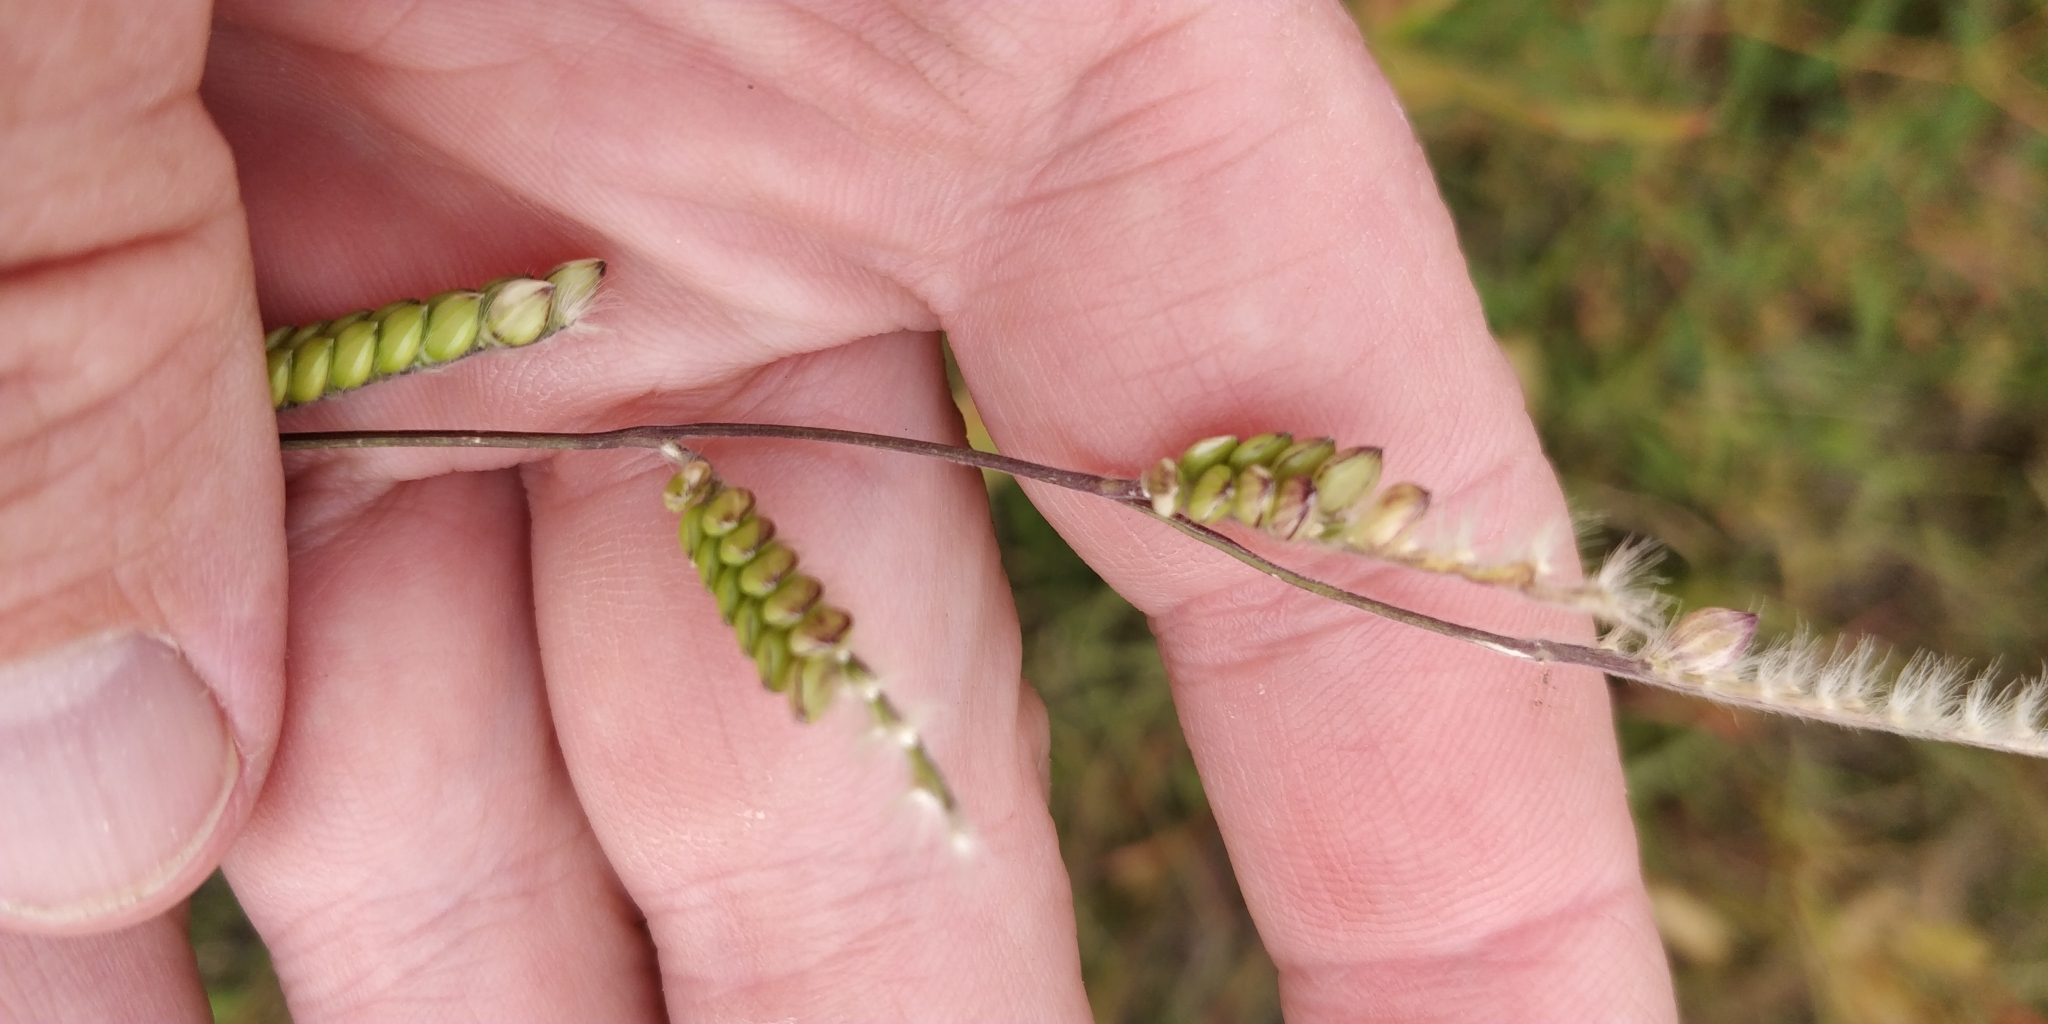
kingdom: Plantae
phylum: Tracheophyta
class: Liliopsida
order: Poales
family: Poaceae
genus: Eriochloa
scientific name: Eriochloa villosa
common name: Hairy cupgrass
